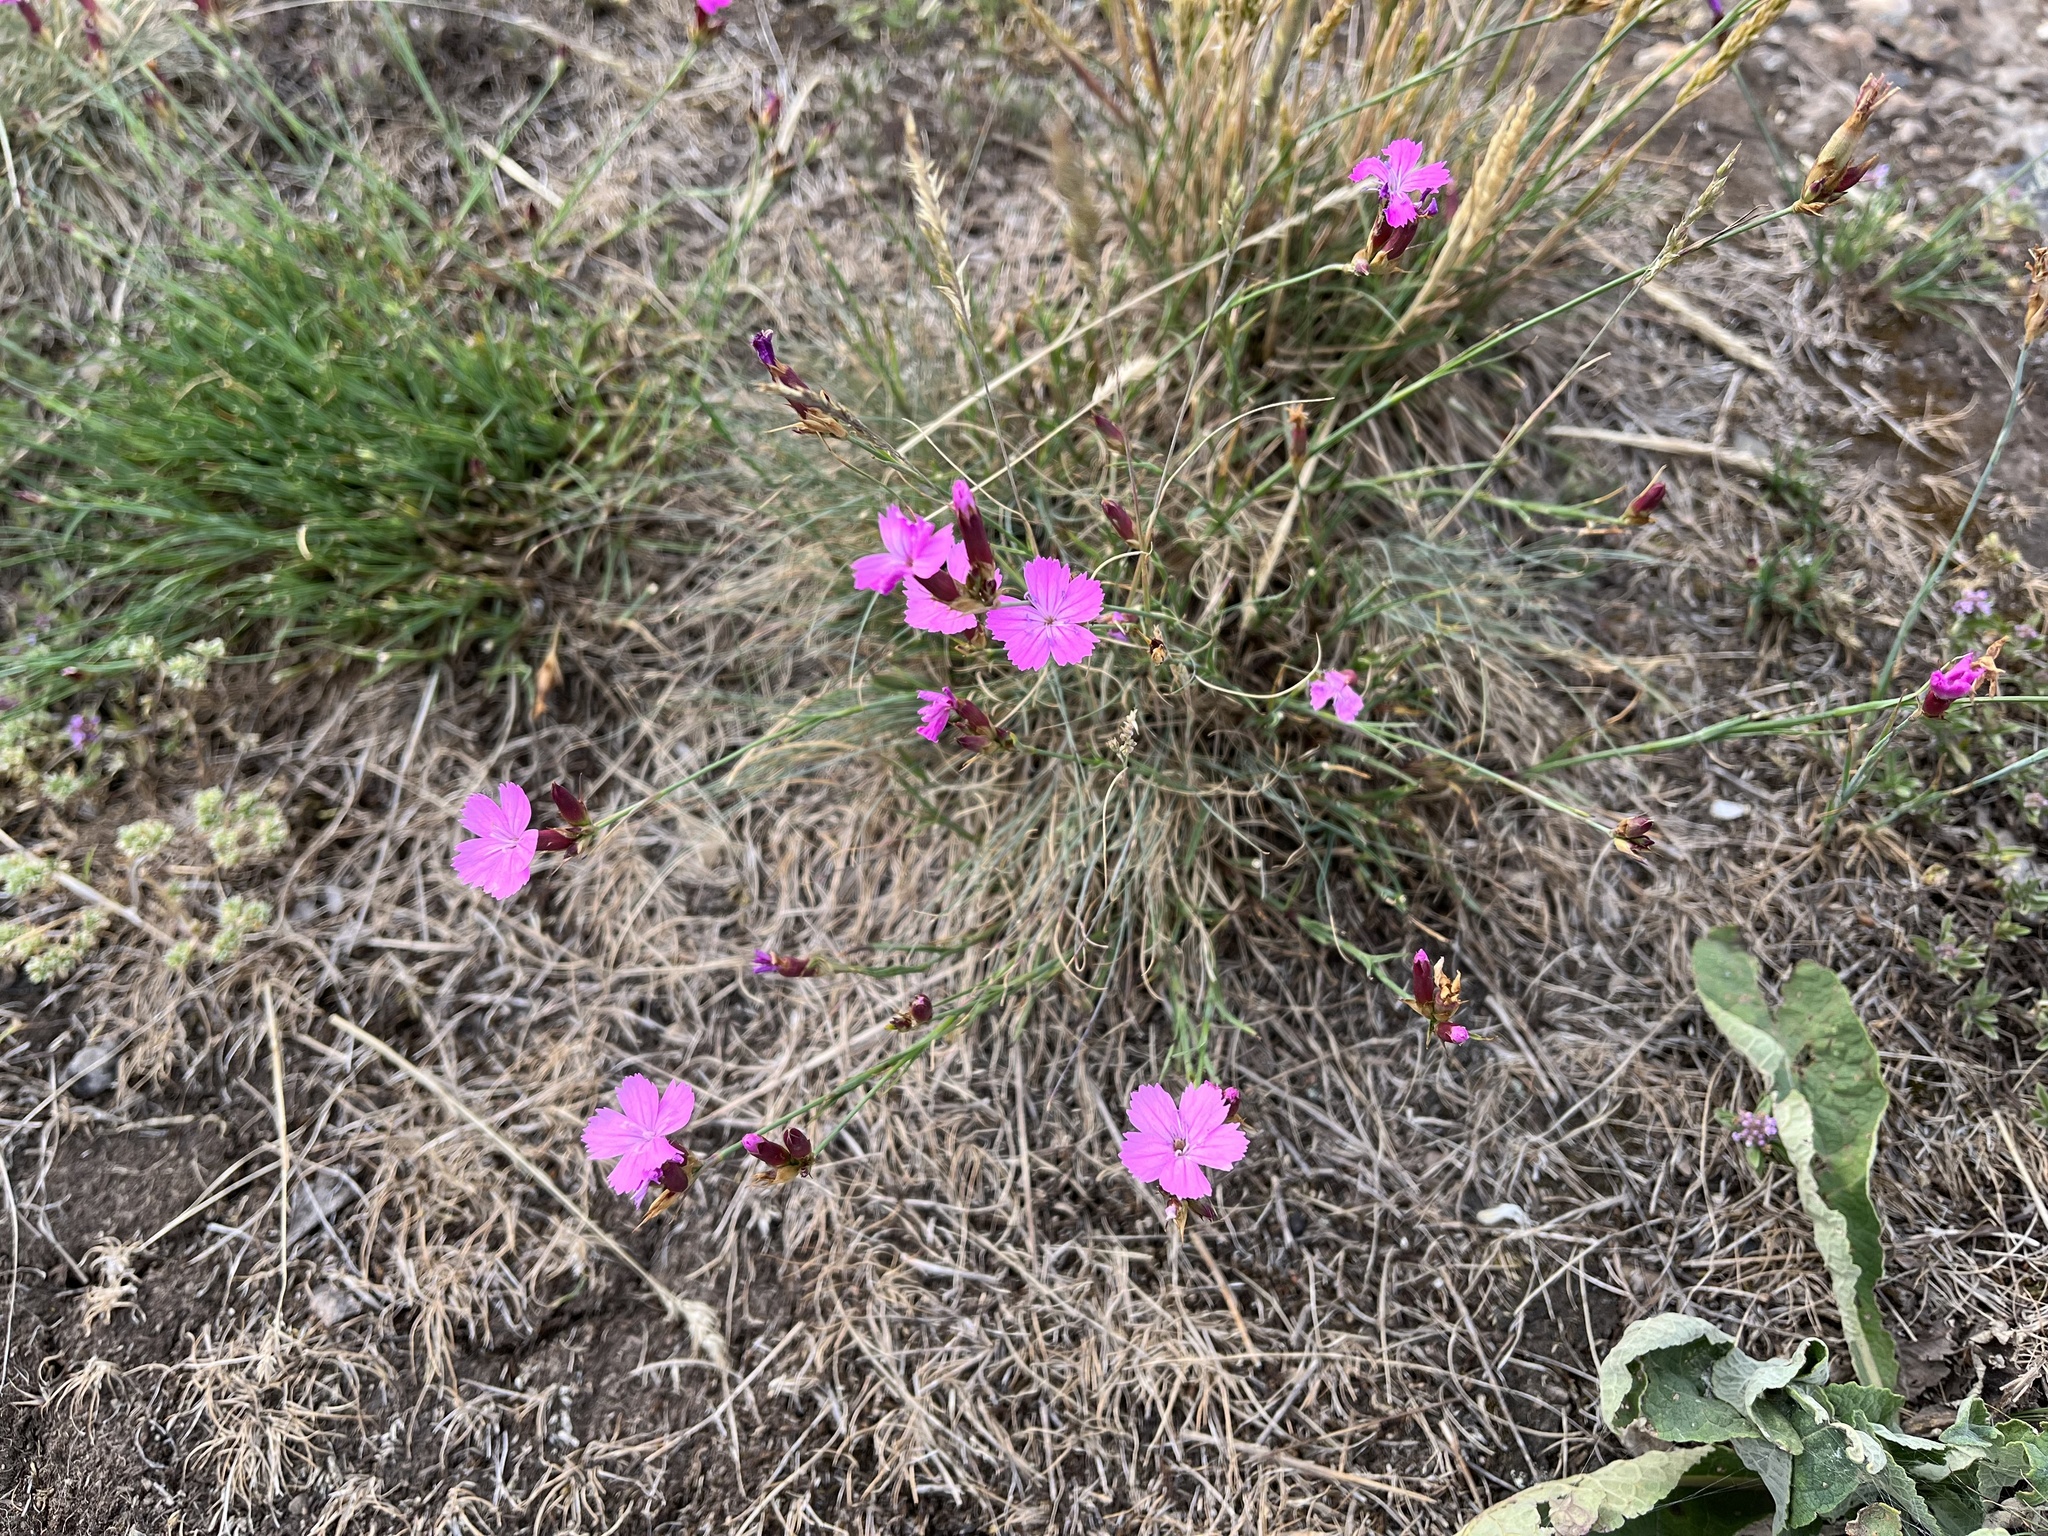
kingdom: Plantae
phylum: Tracheophyta
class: Magnoliopsida
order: Caryophyllales
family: Caryophyllaceae
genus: Dianthus
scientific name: Dianthus carthusianorum
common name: Carthusian pink
